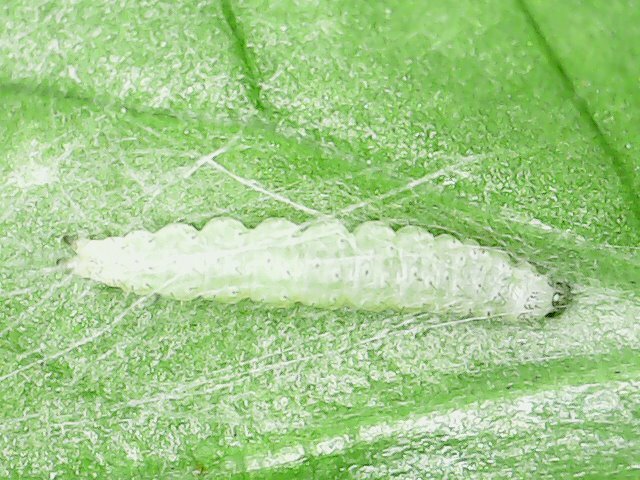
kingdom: Animalia
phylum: Arthropoda
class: Insecta
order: Lepidoptera
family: Plutellidae
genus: Plutella
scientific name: Plutella xylostella
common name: Diamond-back moth
